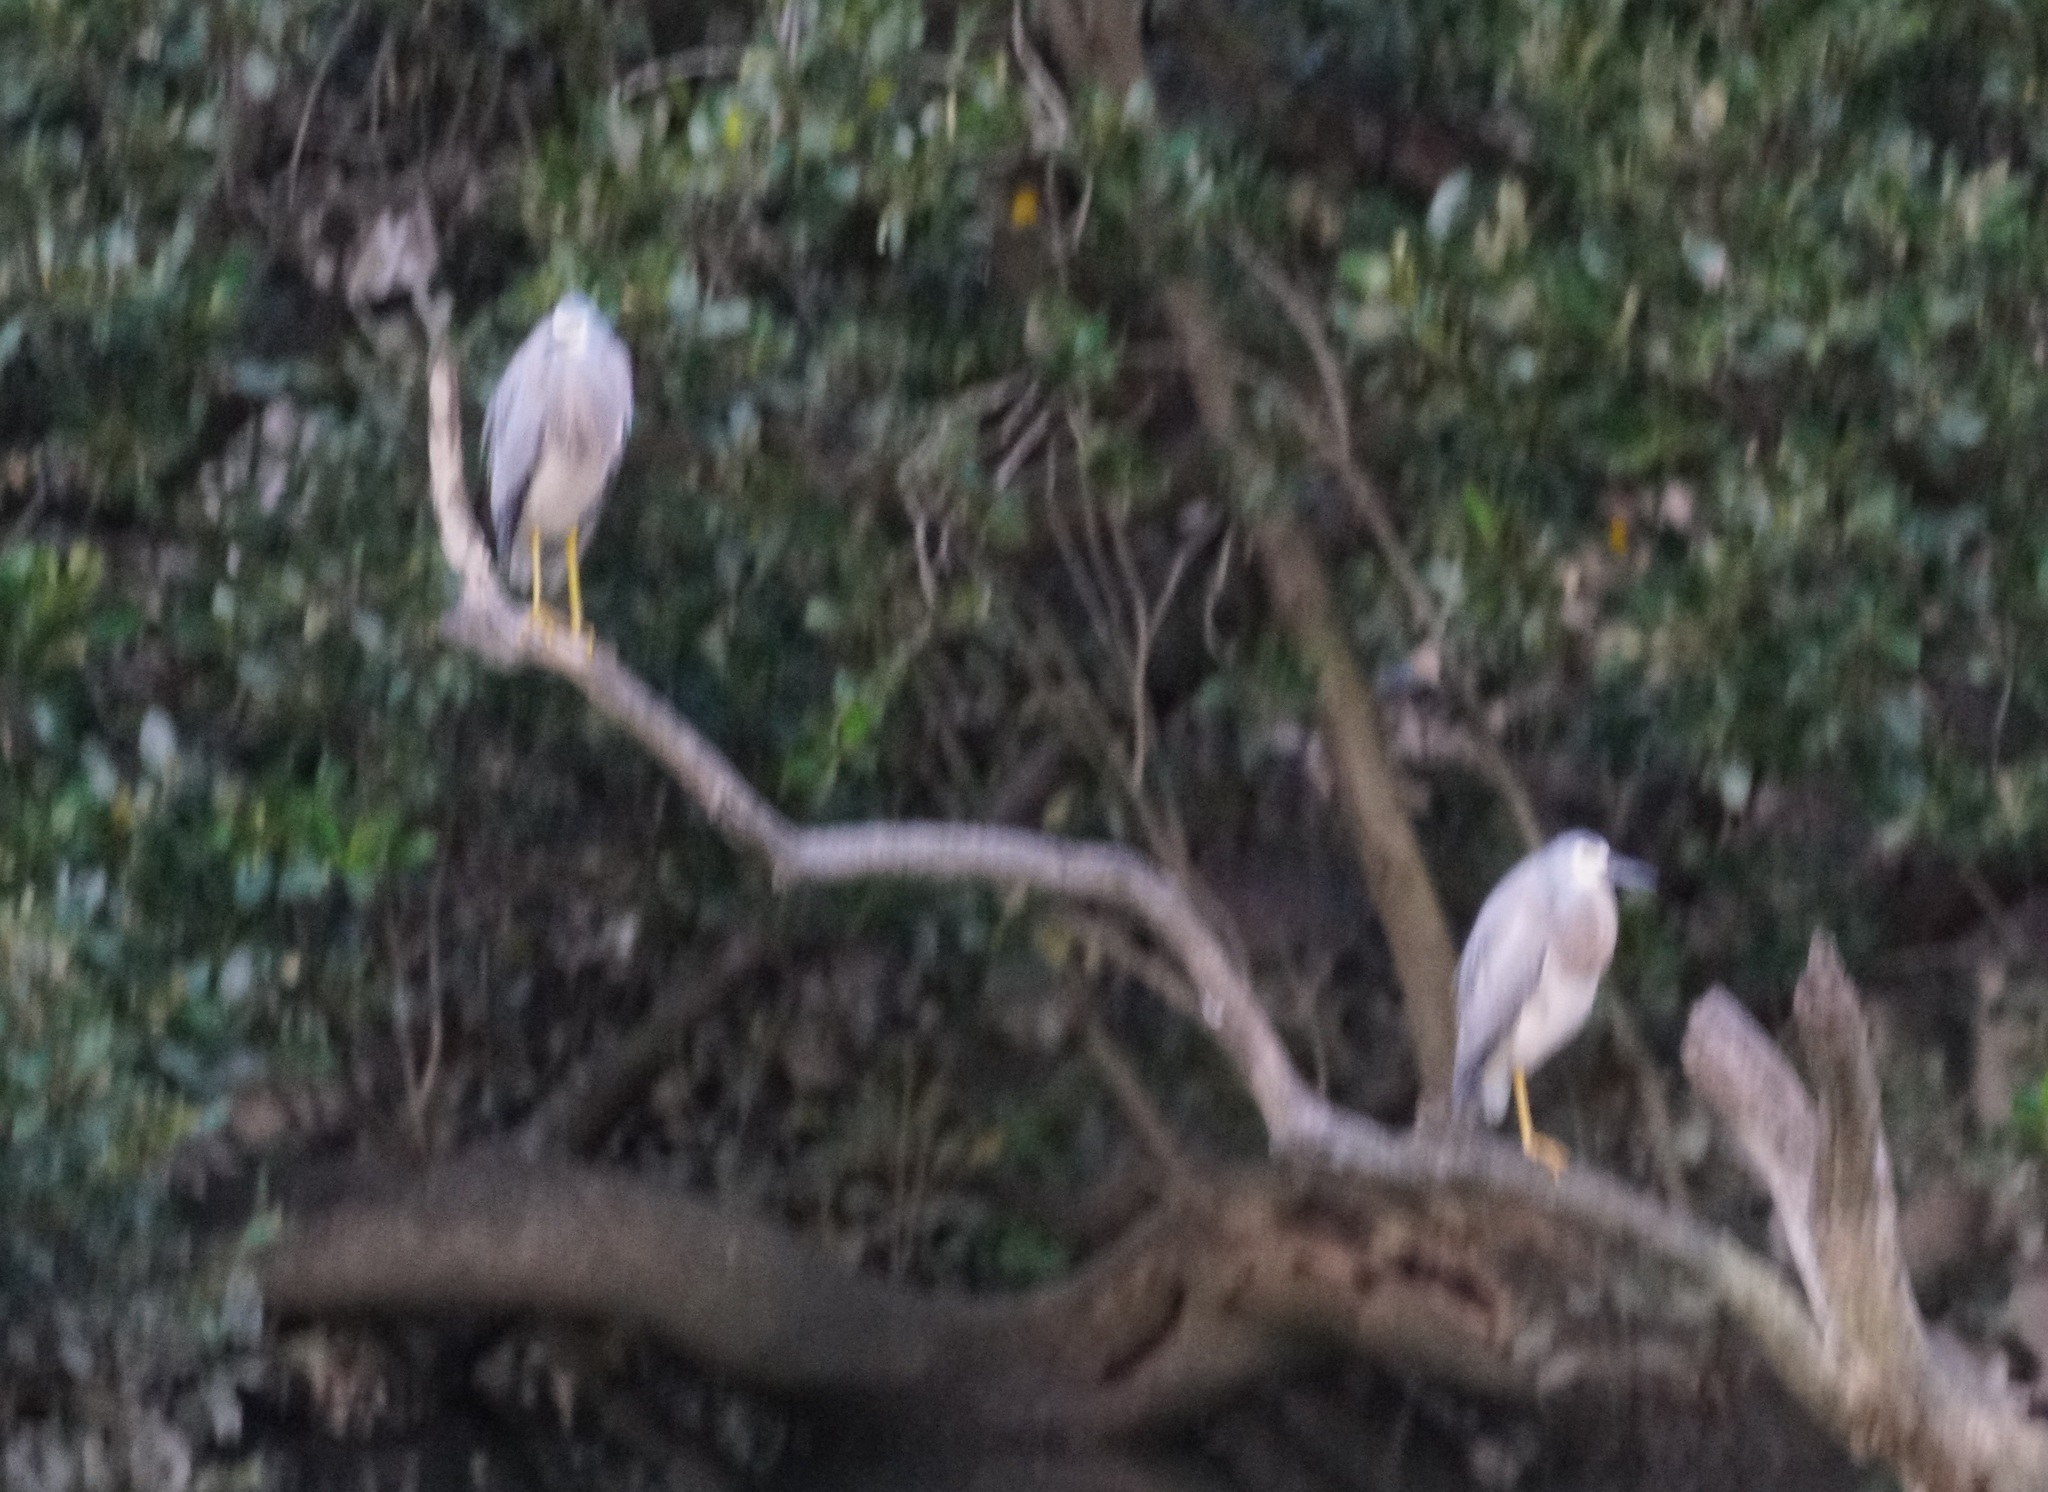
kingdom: Animalia
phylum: Chordata
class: Aves
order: Pelecaniformes
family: Ardeidae
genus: Egretta
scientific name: Egretta novaehollandiae
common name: White-faced heron
